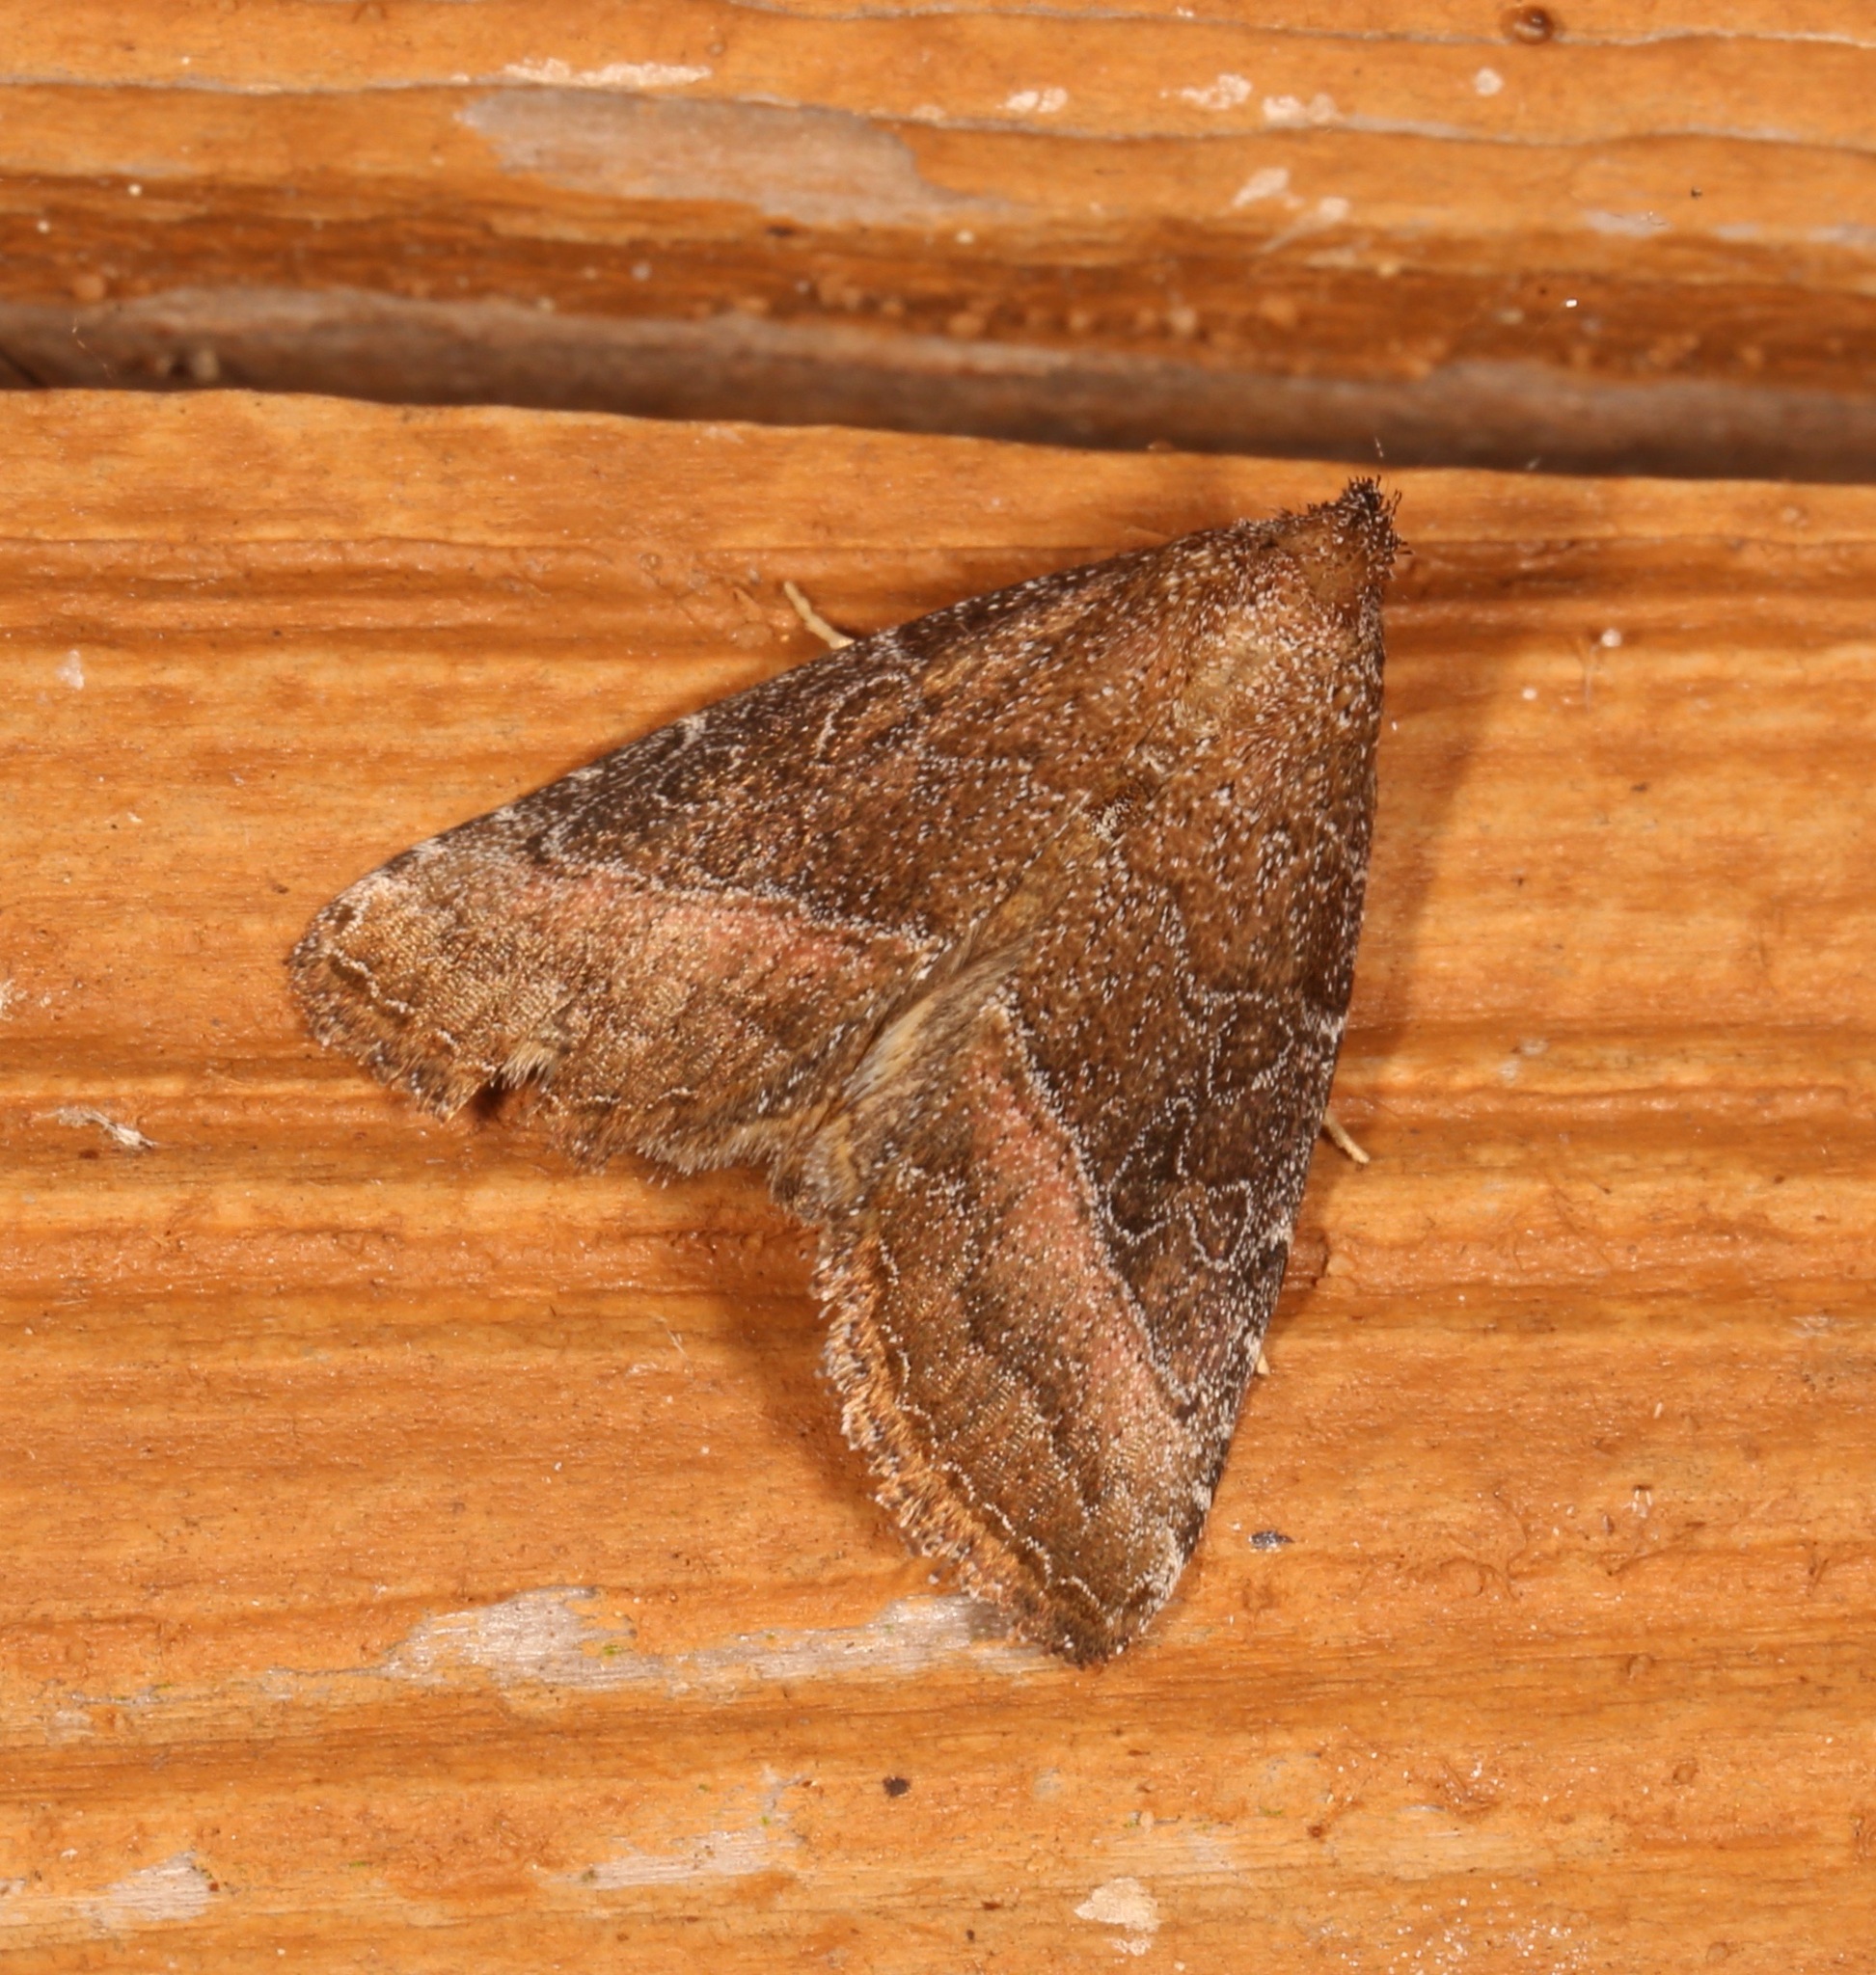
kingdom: Animalia
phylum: Arthropoda
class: Insecta
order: Lepidoptera
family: Noctuidae
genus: Ogdoconta
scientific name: Ogdoconta cinereola
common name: Common pinkband
